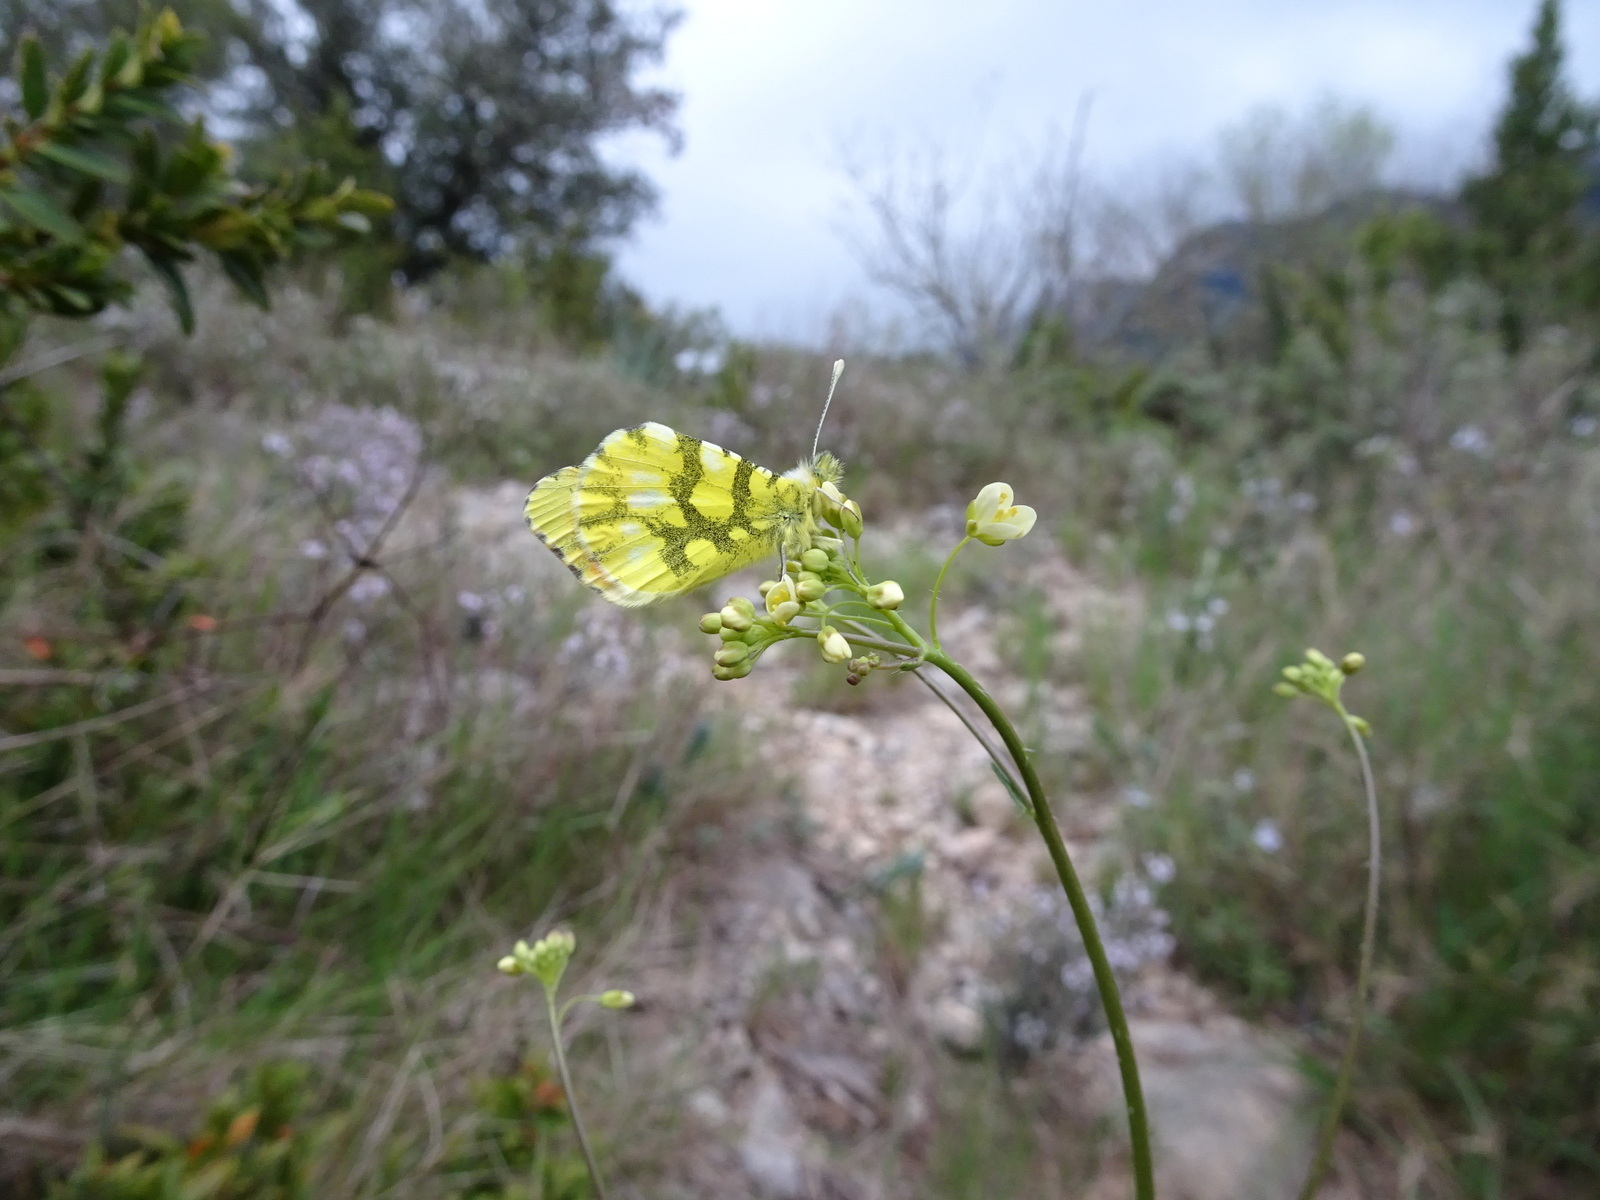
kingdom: Animalia
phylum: Arthropoda
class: Insecta
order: Lepidoptera
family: Pieridae
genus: Anthocharis
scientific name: Anthocharis euphenoides
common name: Provence orange-tip
